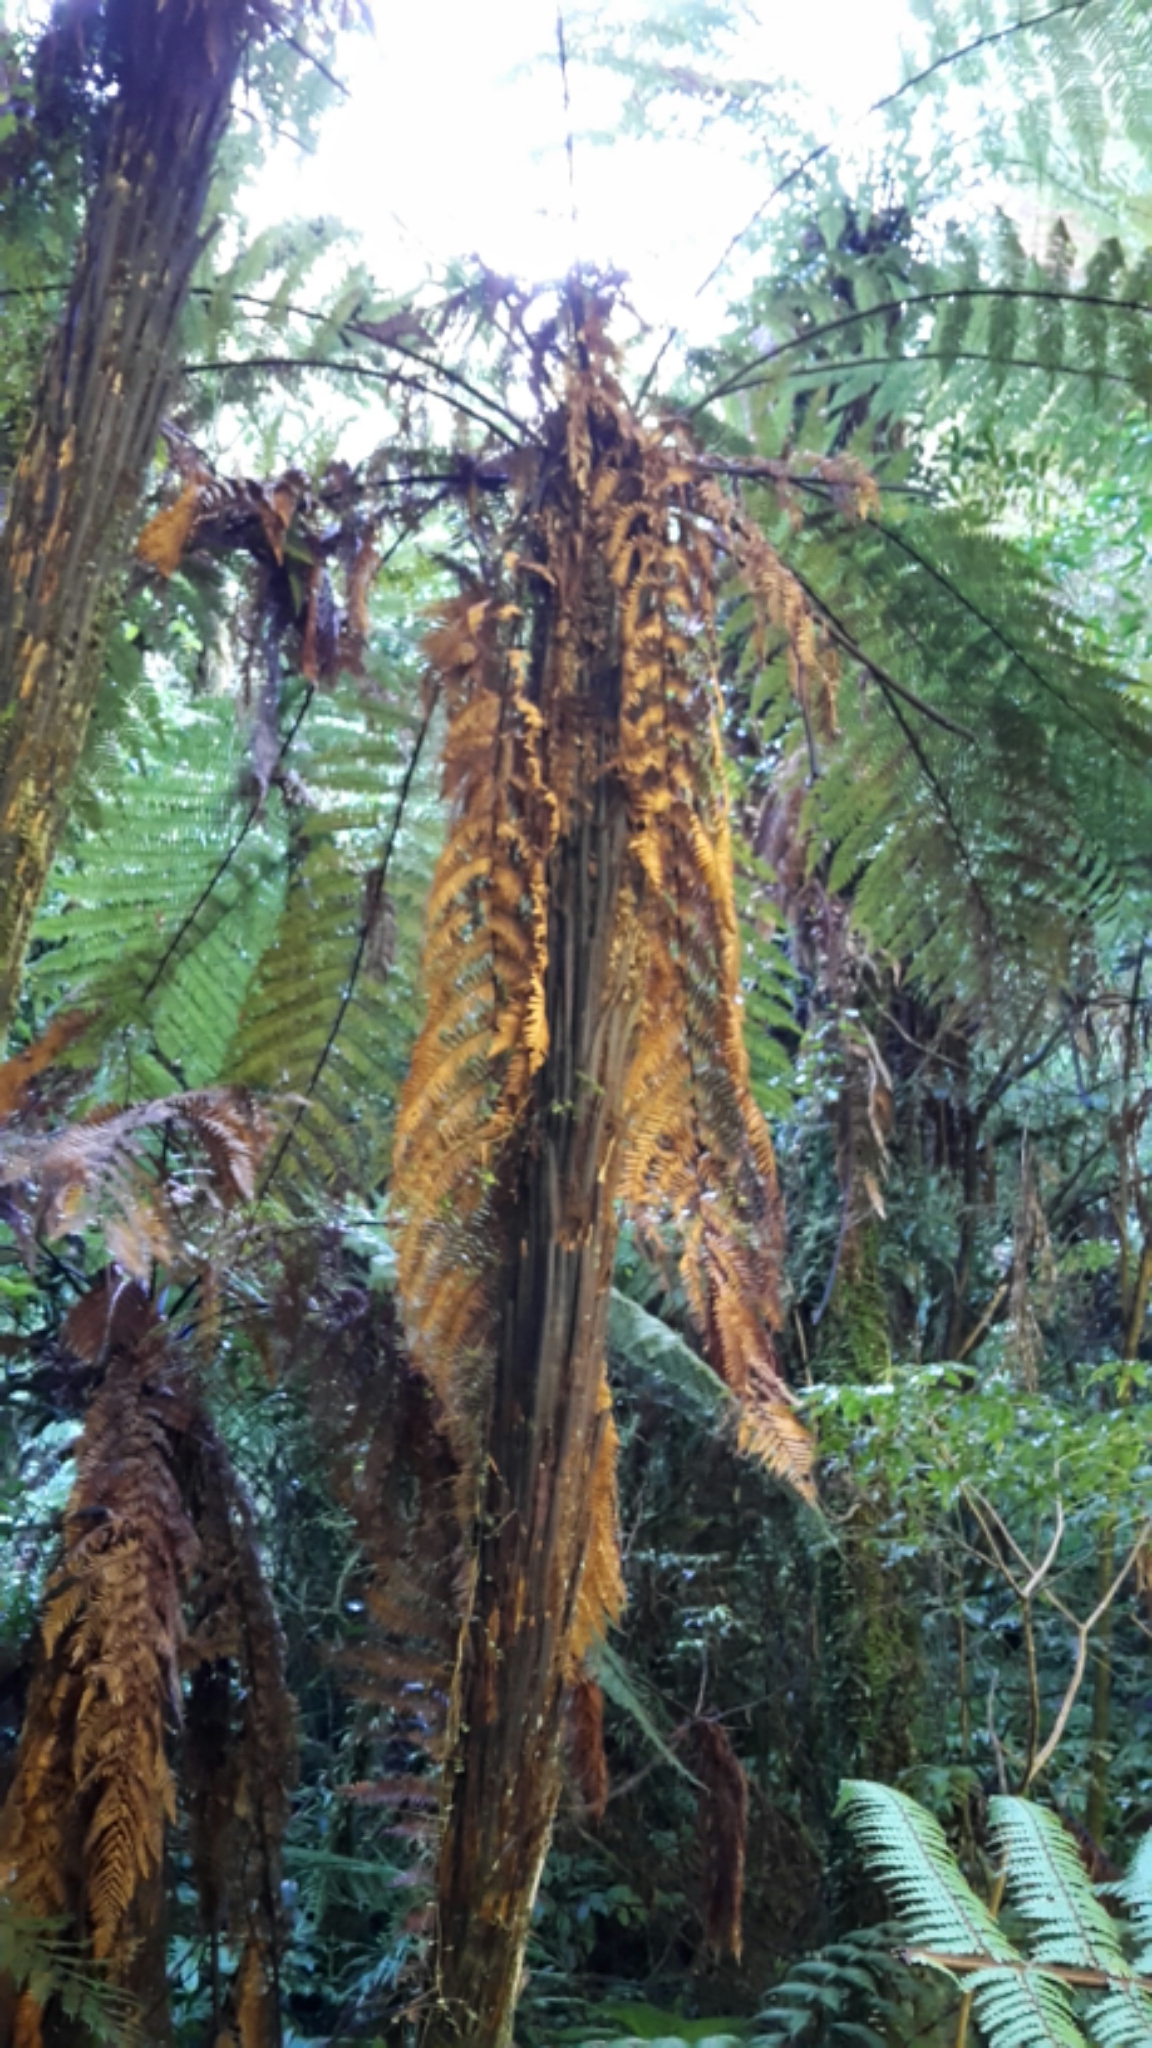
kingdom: Plantae
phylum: Tracheophyta
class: Polypodiopsida
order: Cyatheales
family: Dicksoniaceae
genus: Dicksonia
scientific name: Dicksonia squarrosa
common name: Hard treefern
